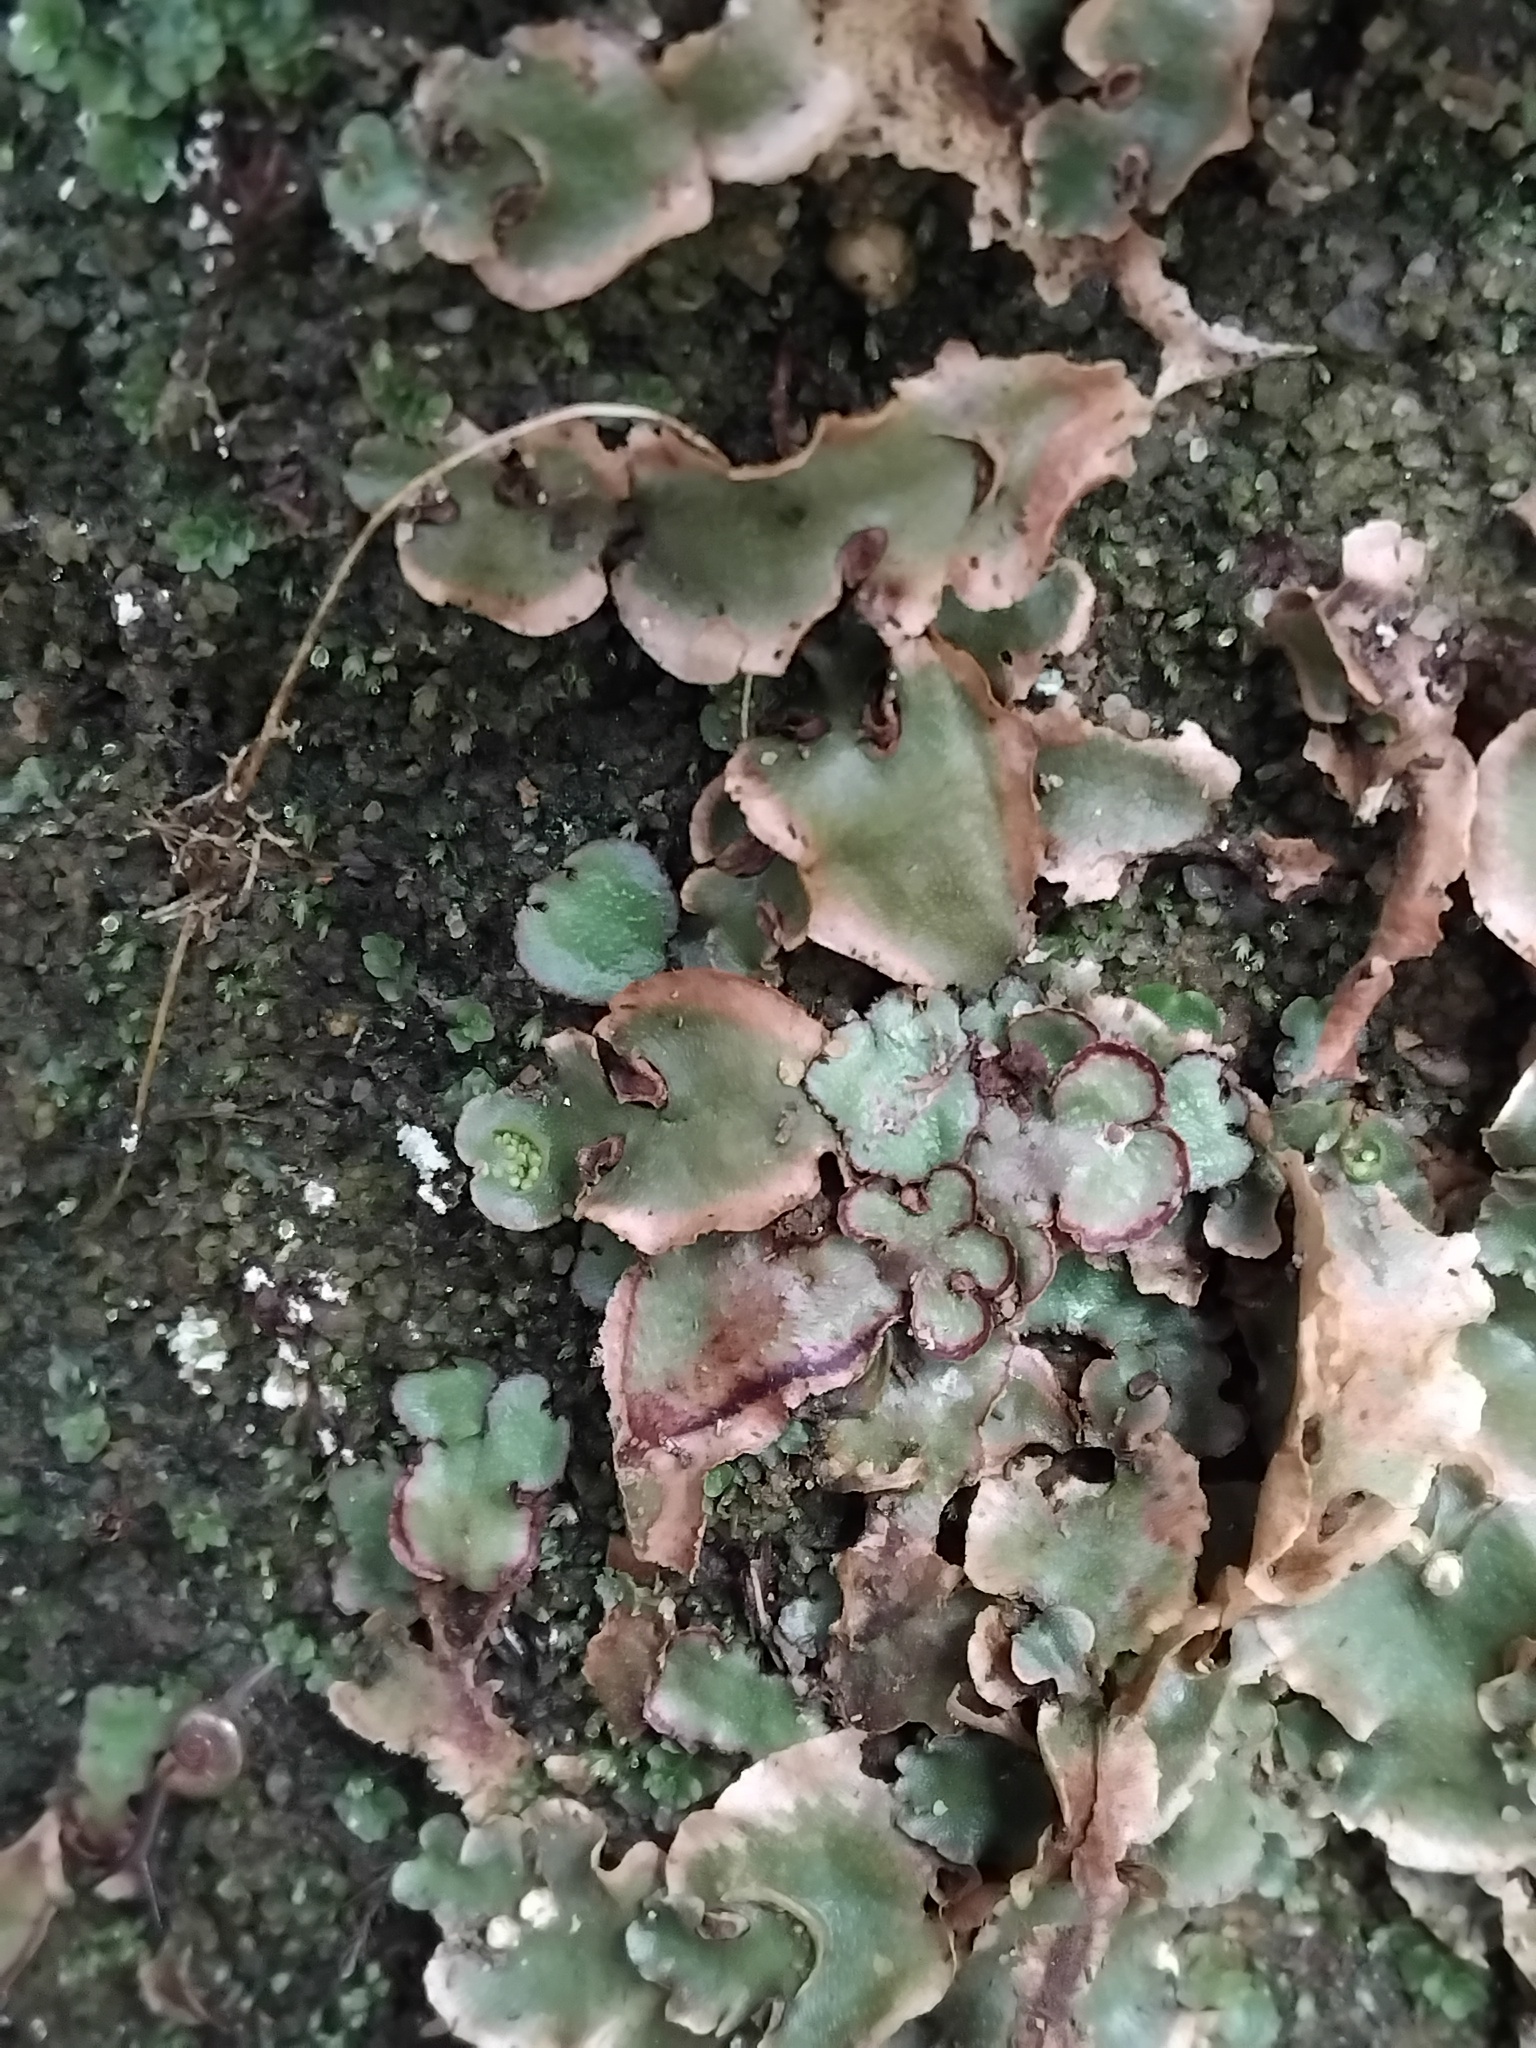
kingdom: Plantae
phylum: Marchantiophyta
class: Marchantiopsida
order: Lunulariales
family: Lunulariaceae
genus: Lunularia
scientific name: Lunularia cruciata
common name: Crescent-cup liverwort
